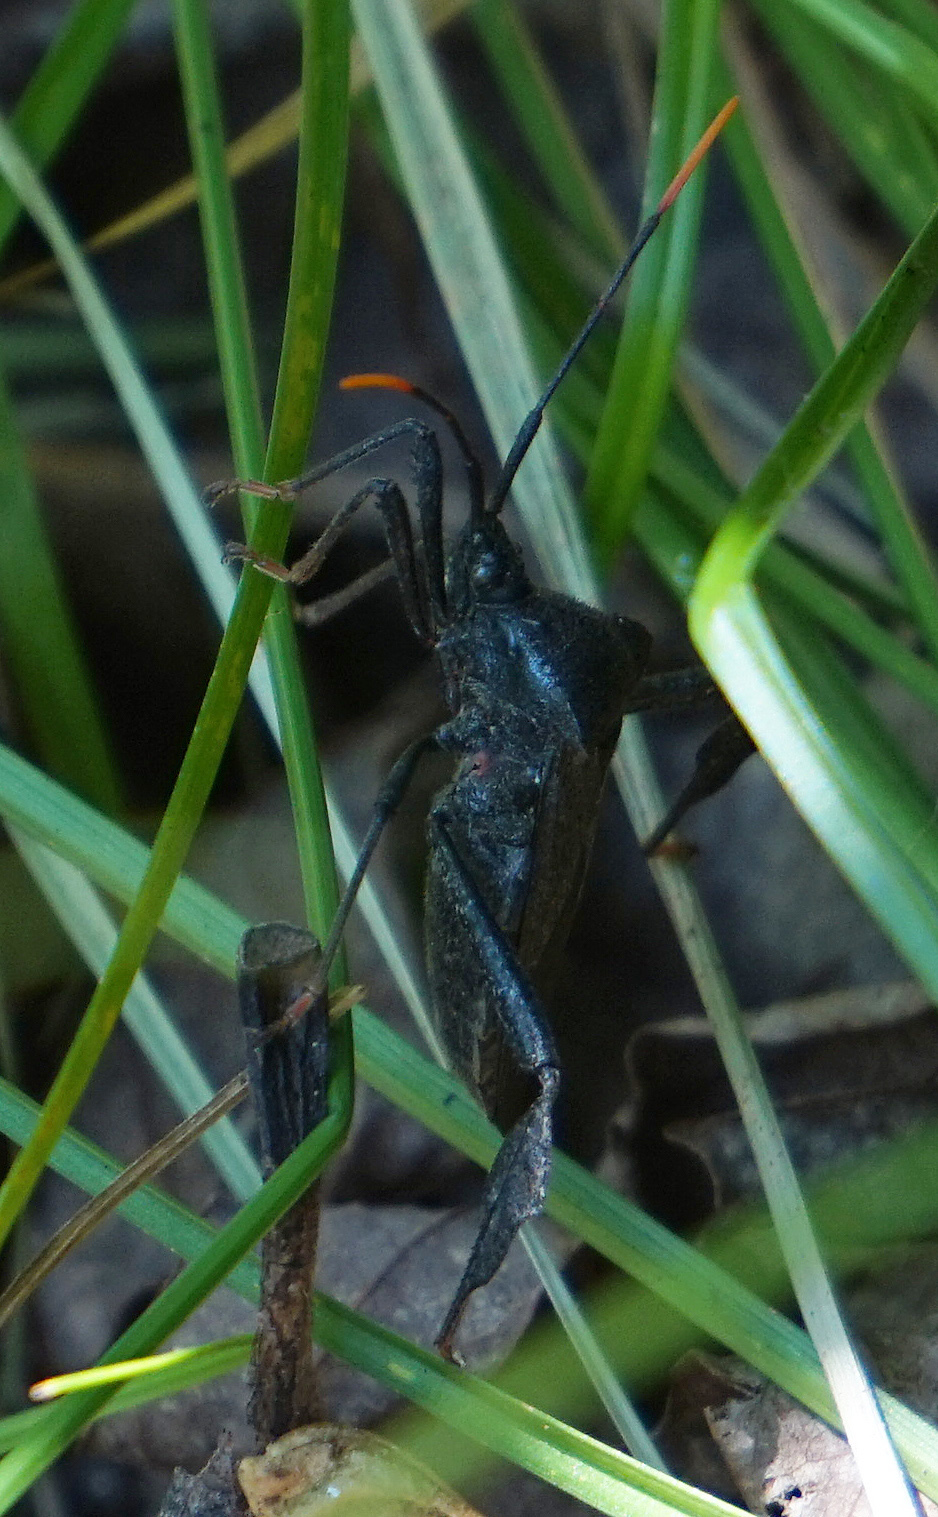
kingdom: Animalia
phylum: Arthropoda
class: Insecta
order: Hemiptera
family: Coreidae
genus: Acanthocephala
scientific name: Acanthocephala terminalis
